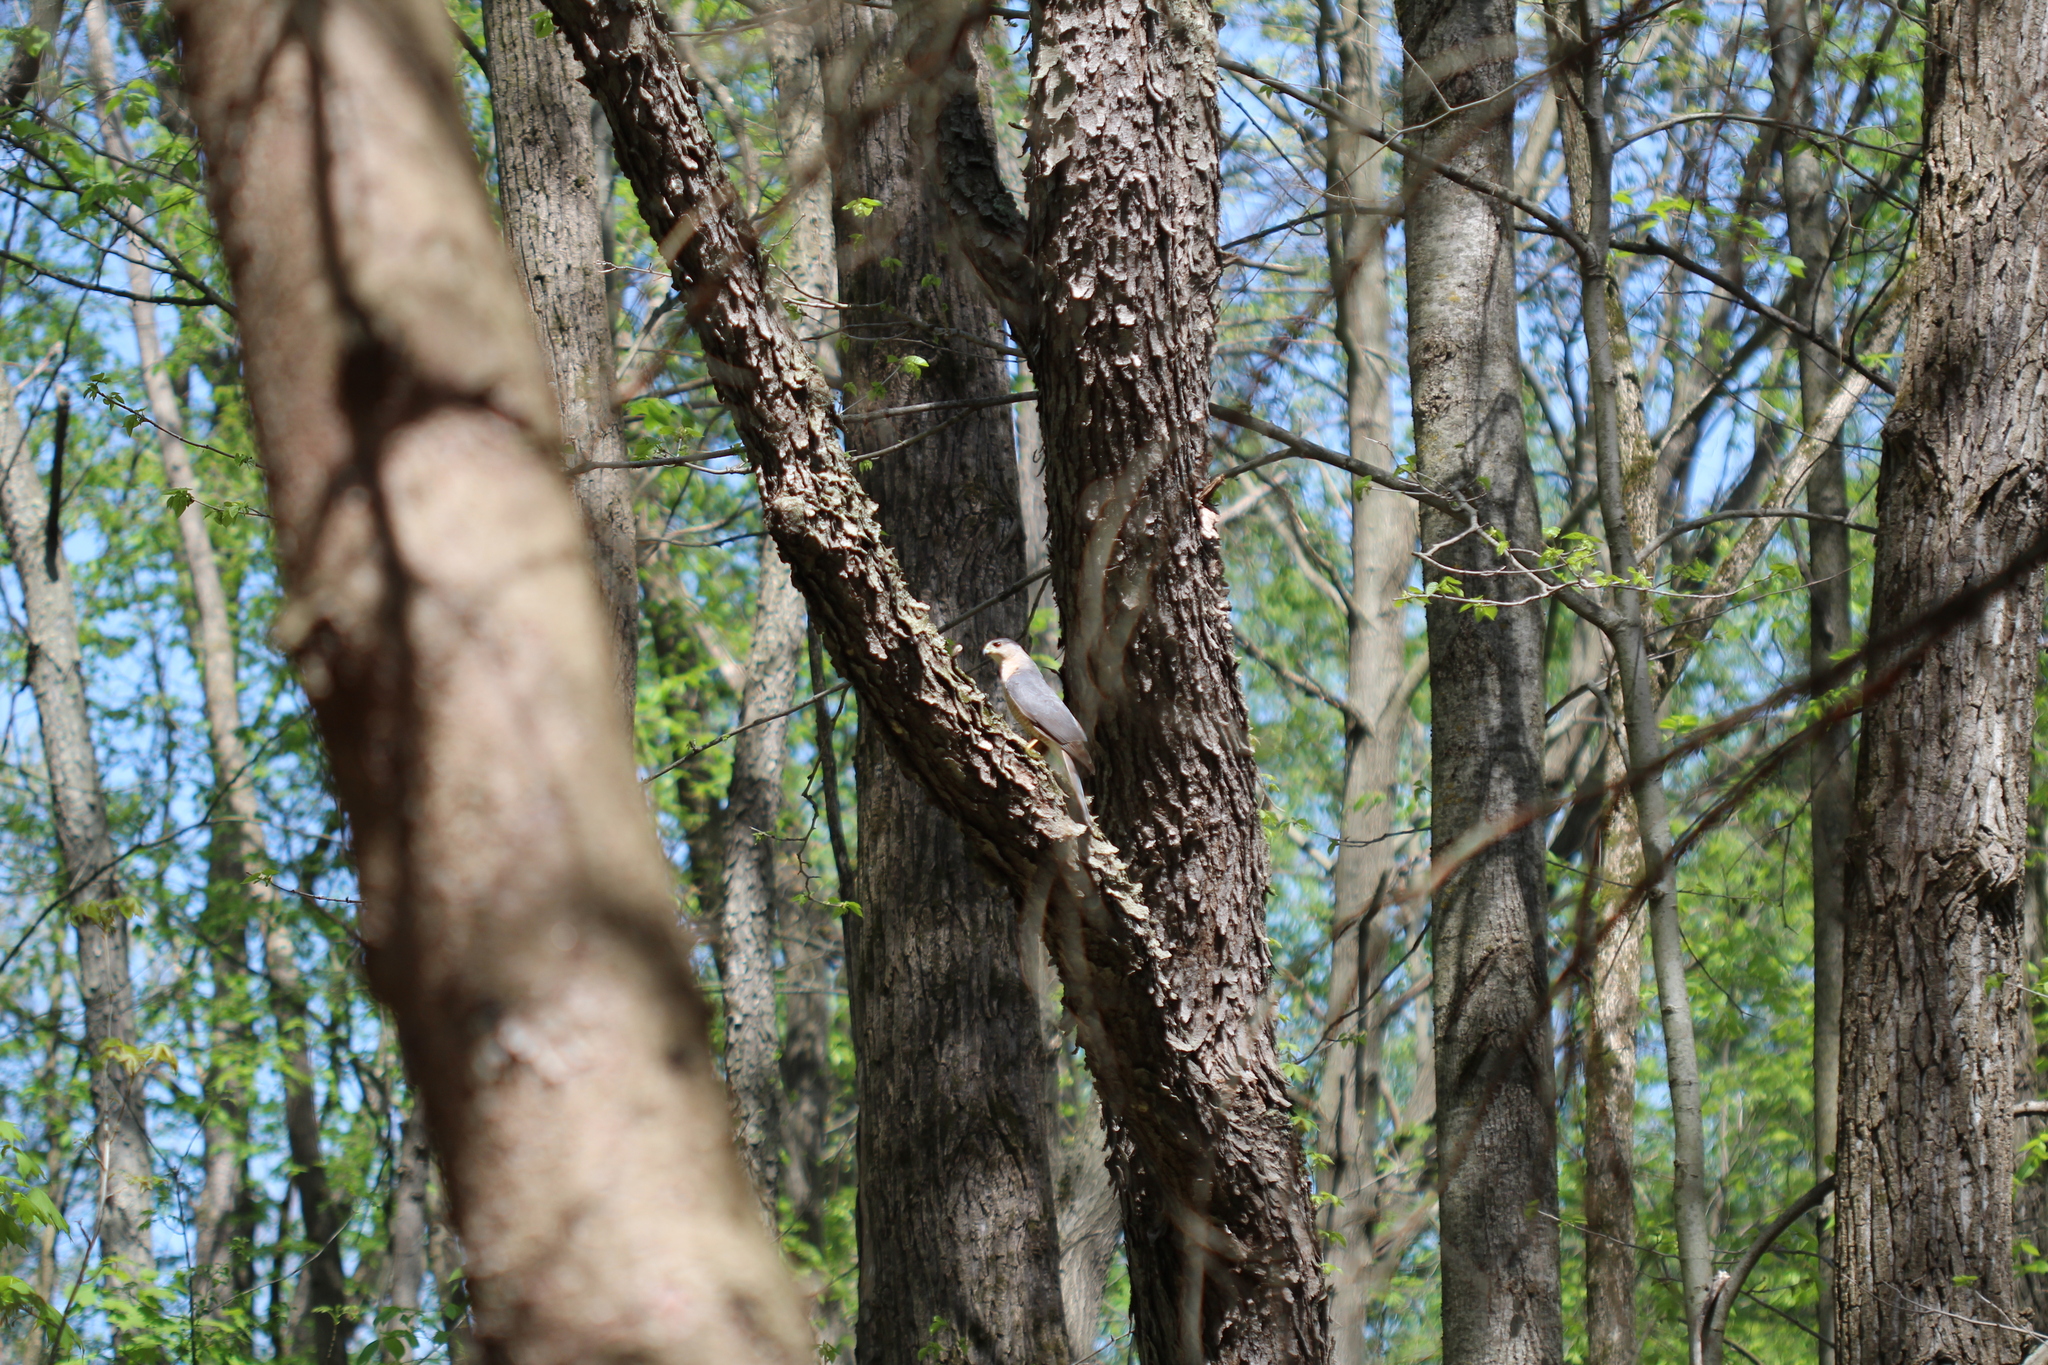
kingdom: Animalia
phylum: Chordata
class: Aves
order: Accipitriformes
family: Accipitridae
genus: Accipiter
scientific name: Accipiter cooperii
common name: Cooper's hawk
